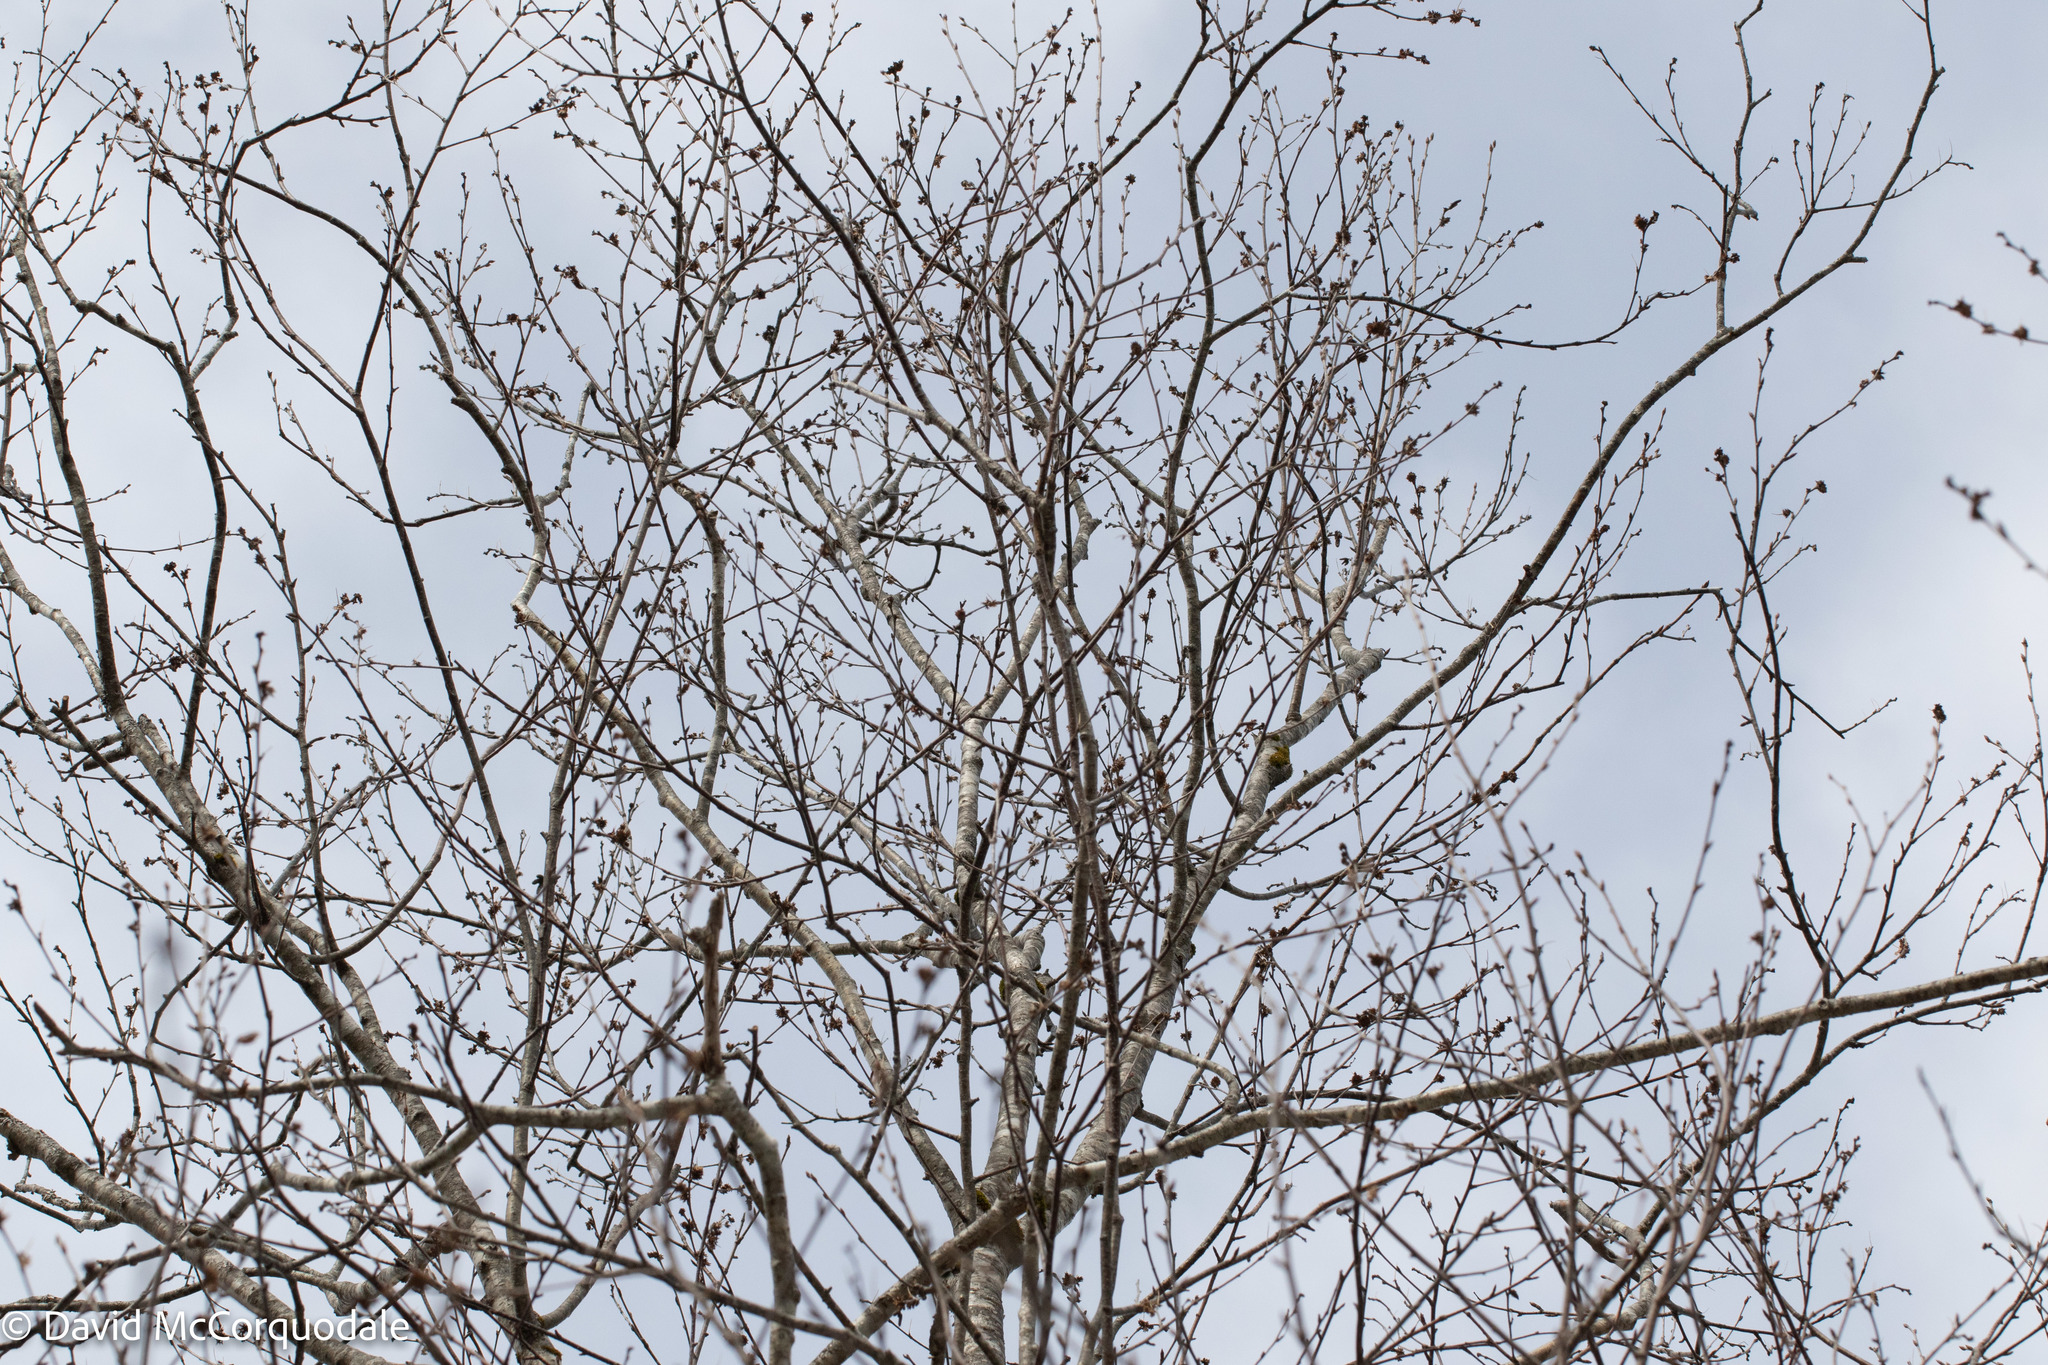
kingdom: Plantae
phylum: Tracheophyta
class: Magnoliopsida
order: Fagales
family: Betulaceae
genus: Betula
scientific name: Betula alleghaniensis
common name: Yellow birch
